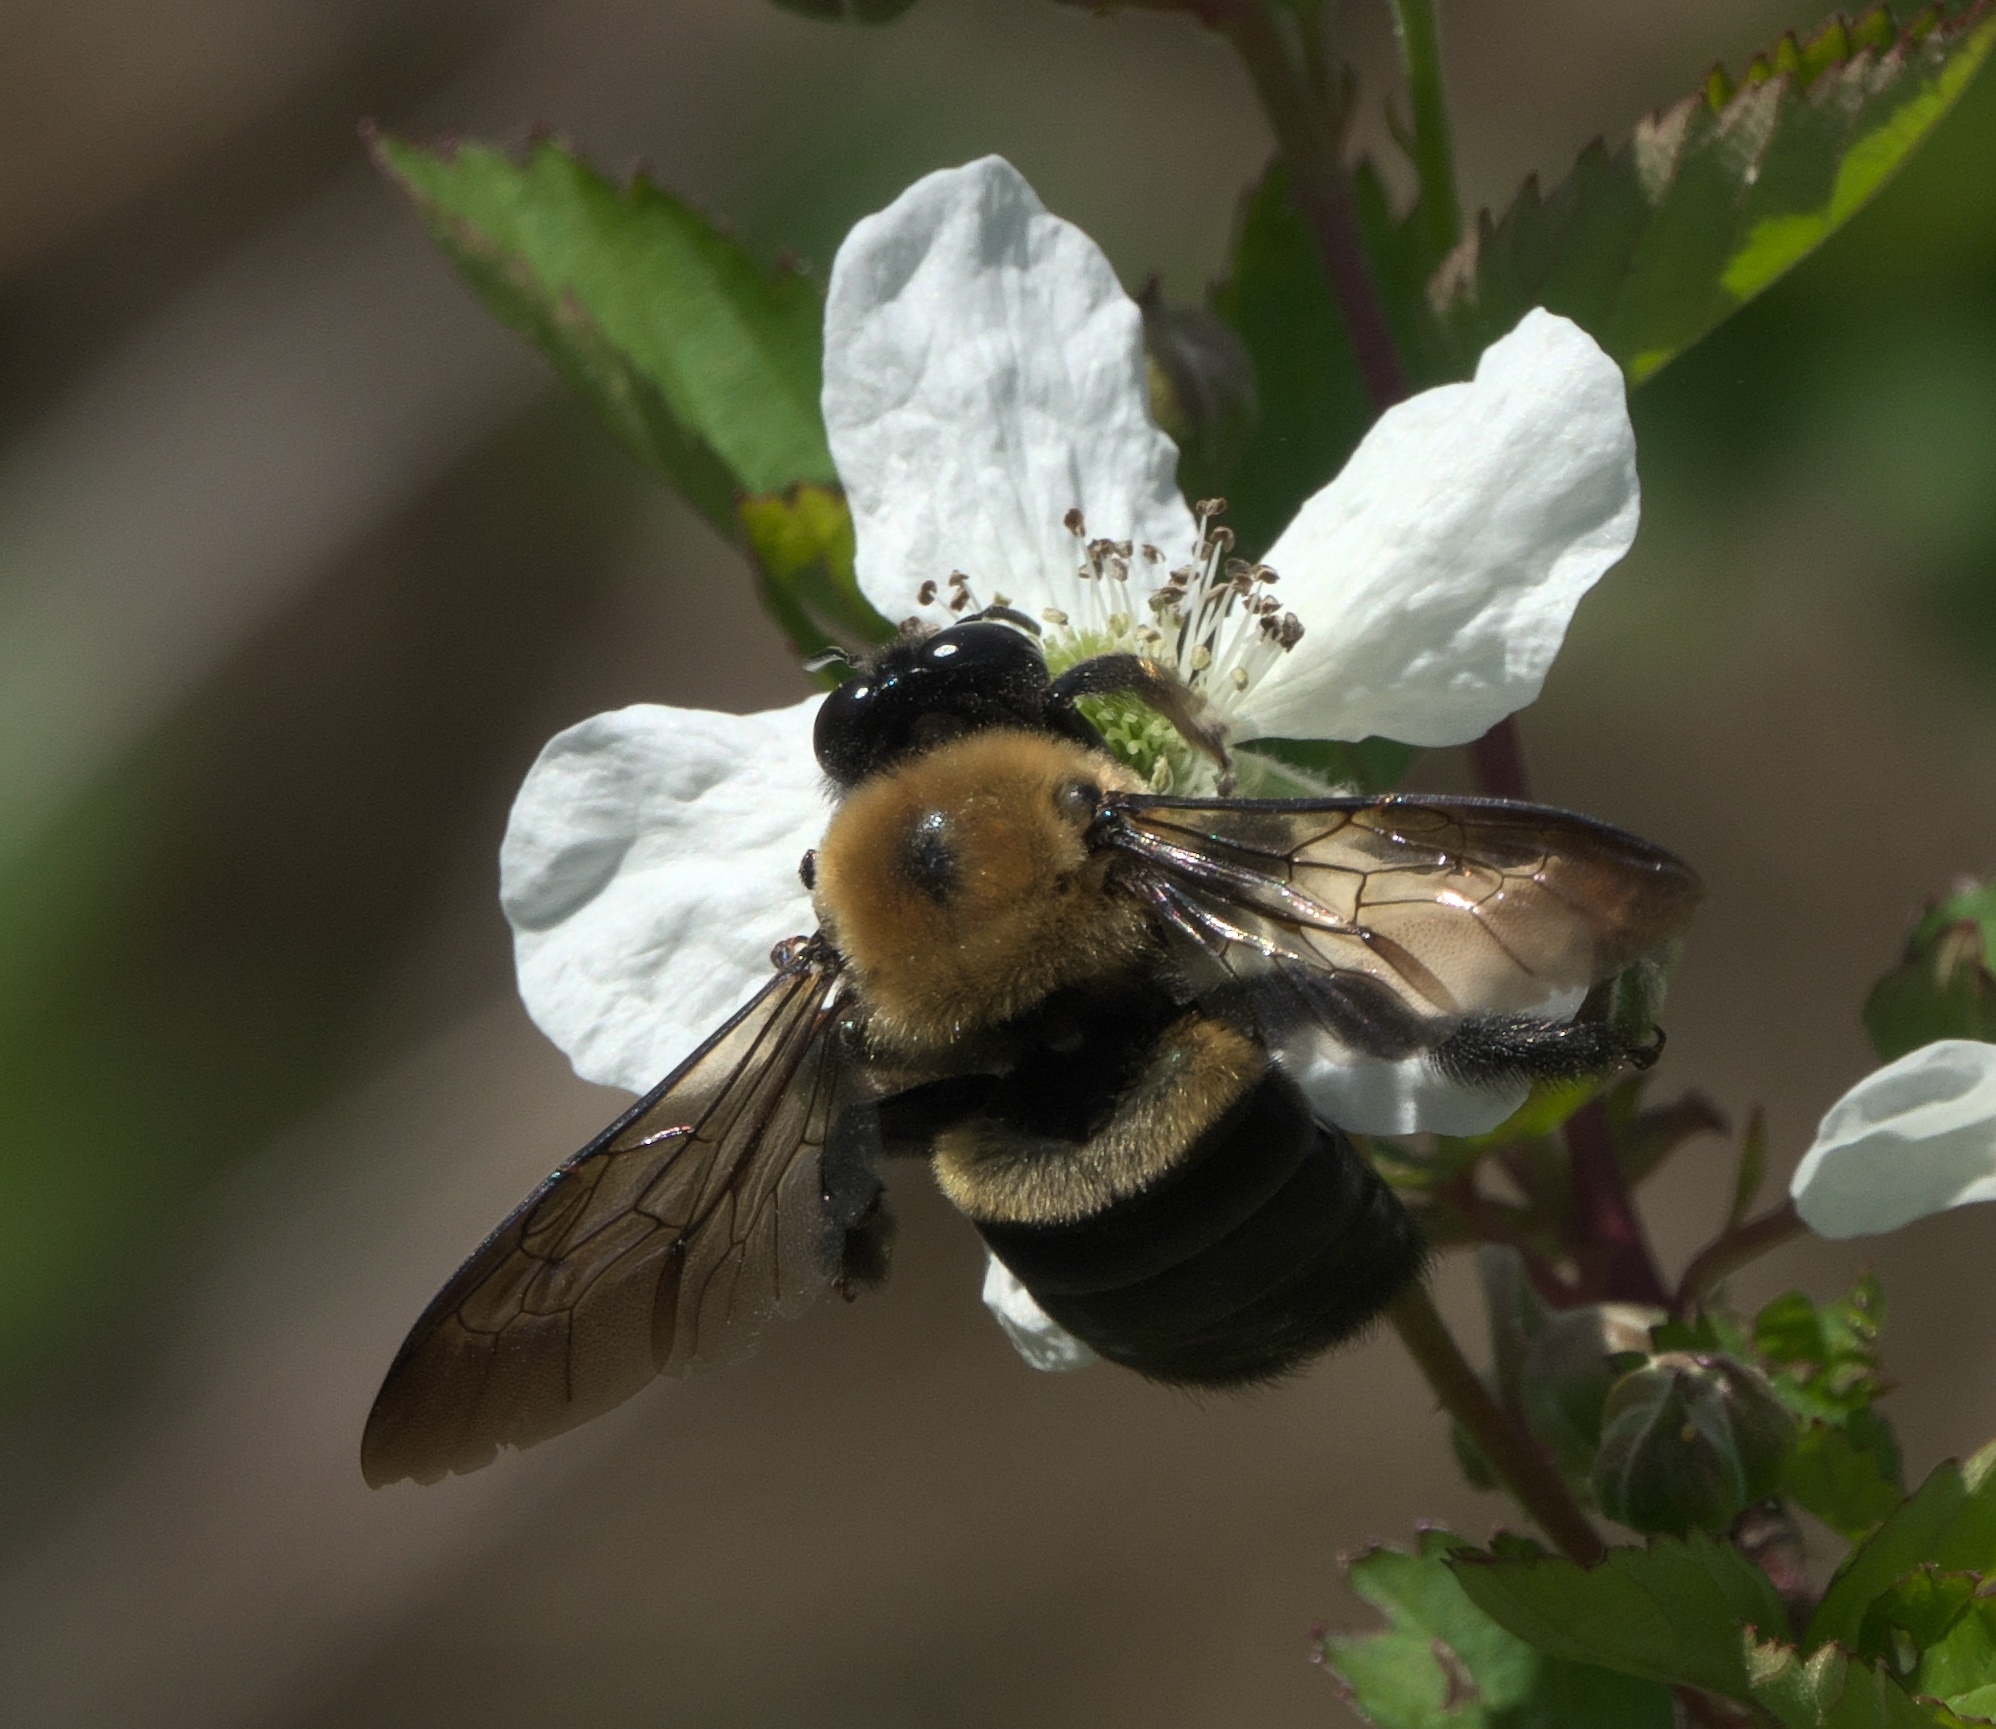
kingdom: Animalia
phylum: Arthropoda
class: Insecta
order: Hymenoptera
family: Apidae
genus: Xylocopa
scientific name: Xylocopa virginica
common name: Carpenter bee
